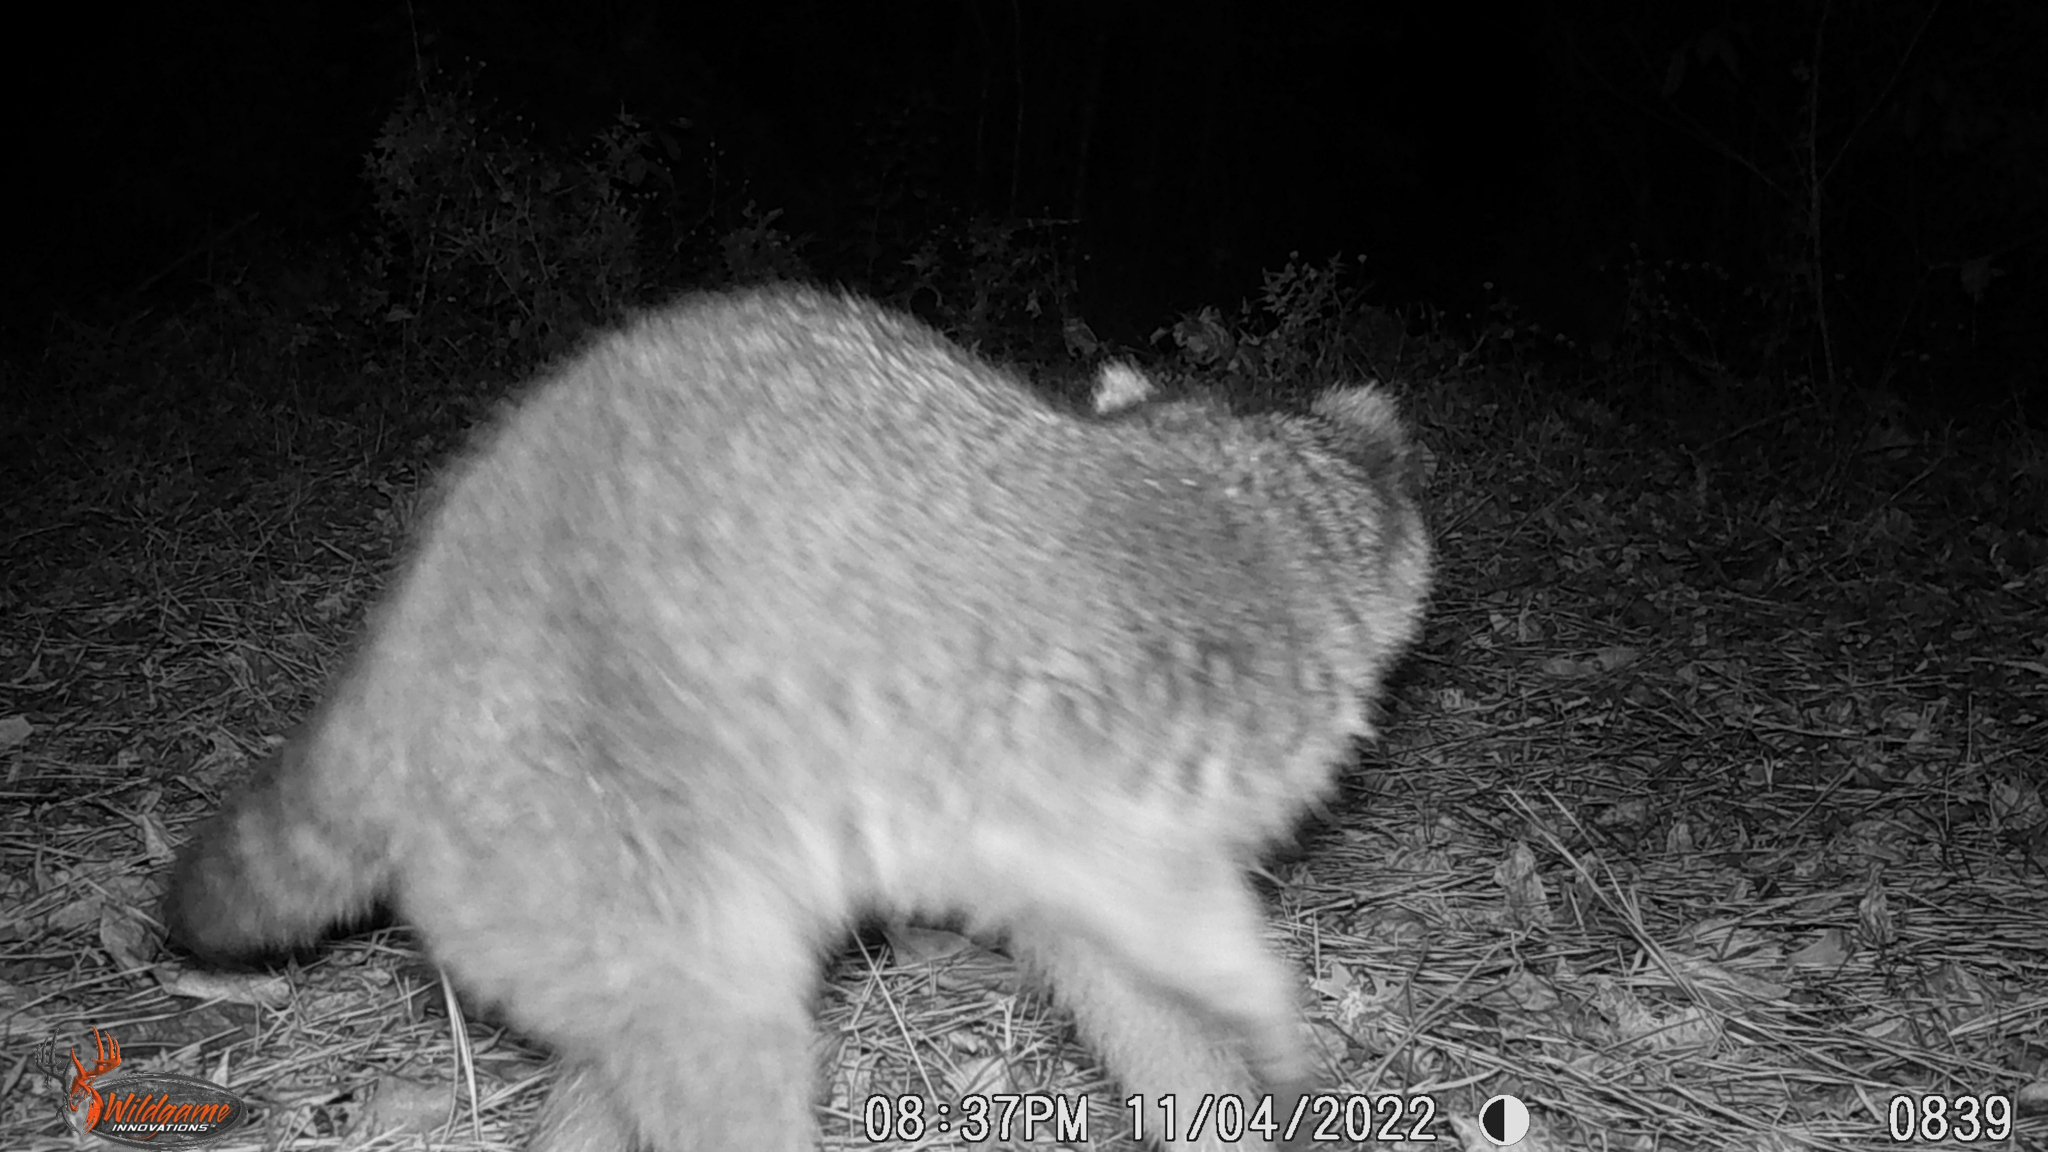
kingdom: Animalia
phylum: Chordata
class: Mammalia
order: Carnivora
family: Procyonidae
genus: Procyon
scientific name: Procyon lotor
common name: Raccoon
